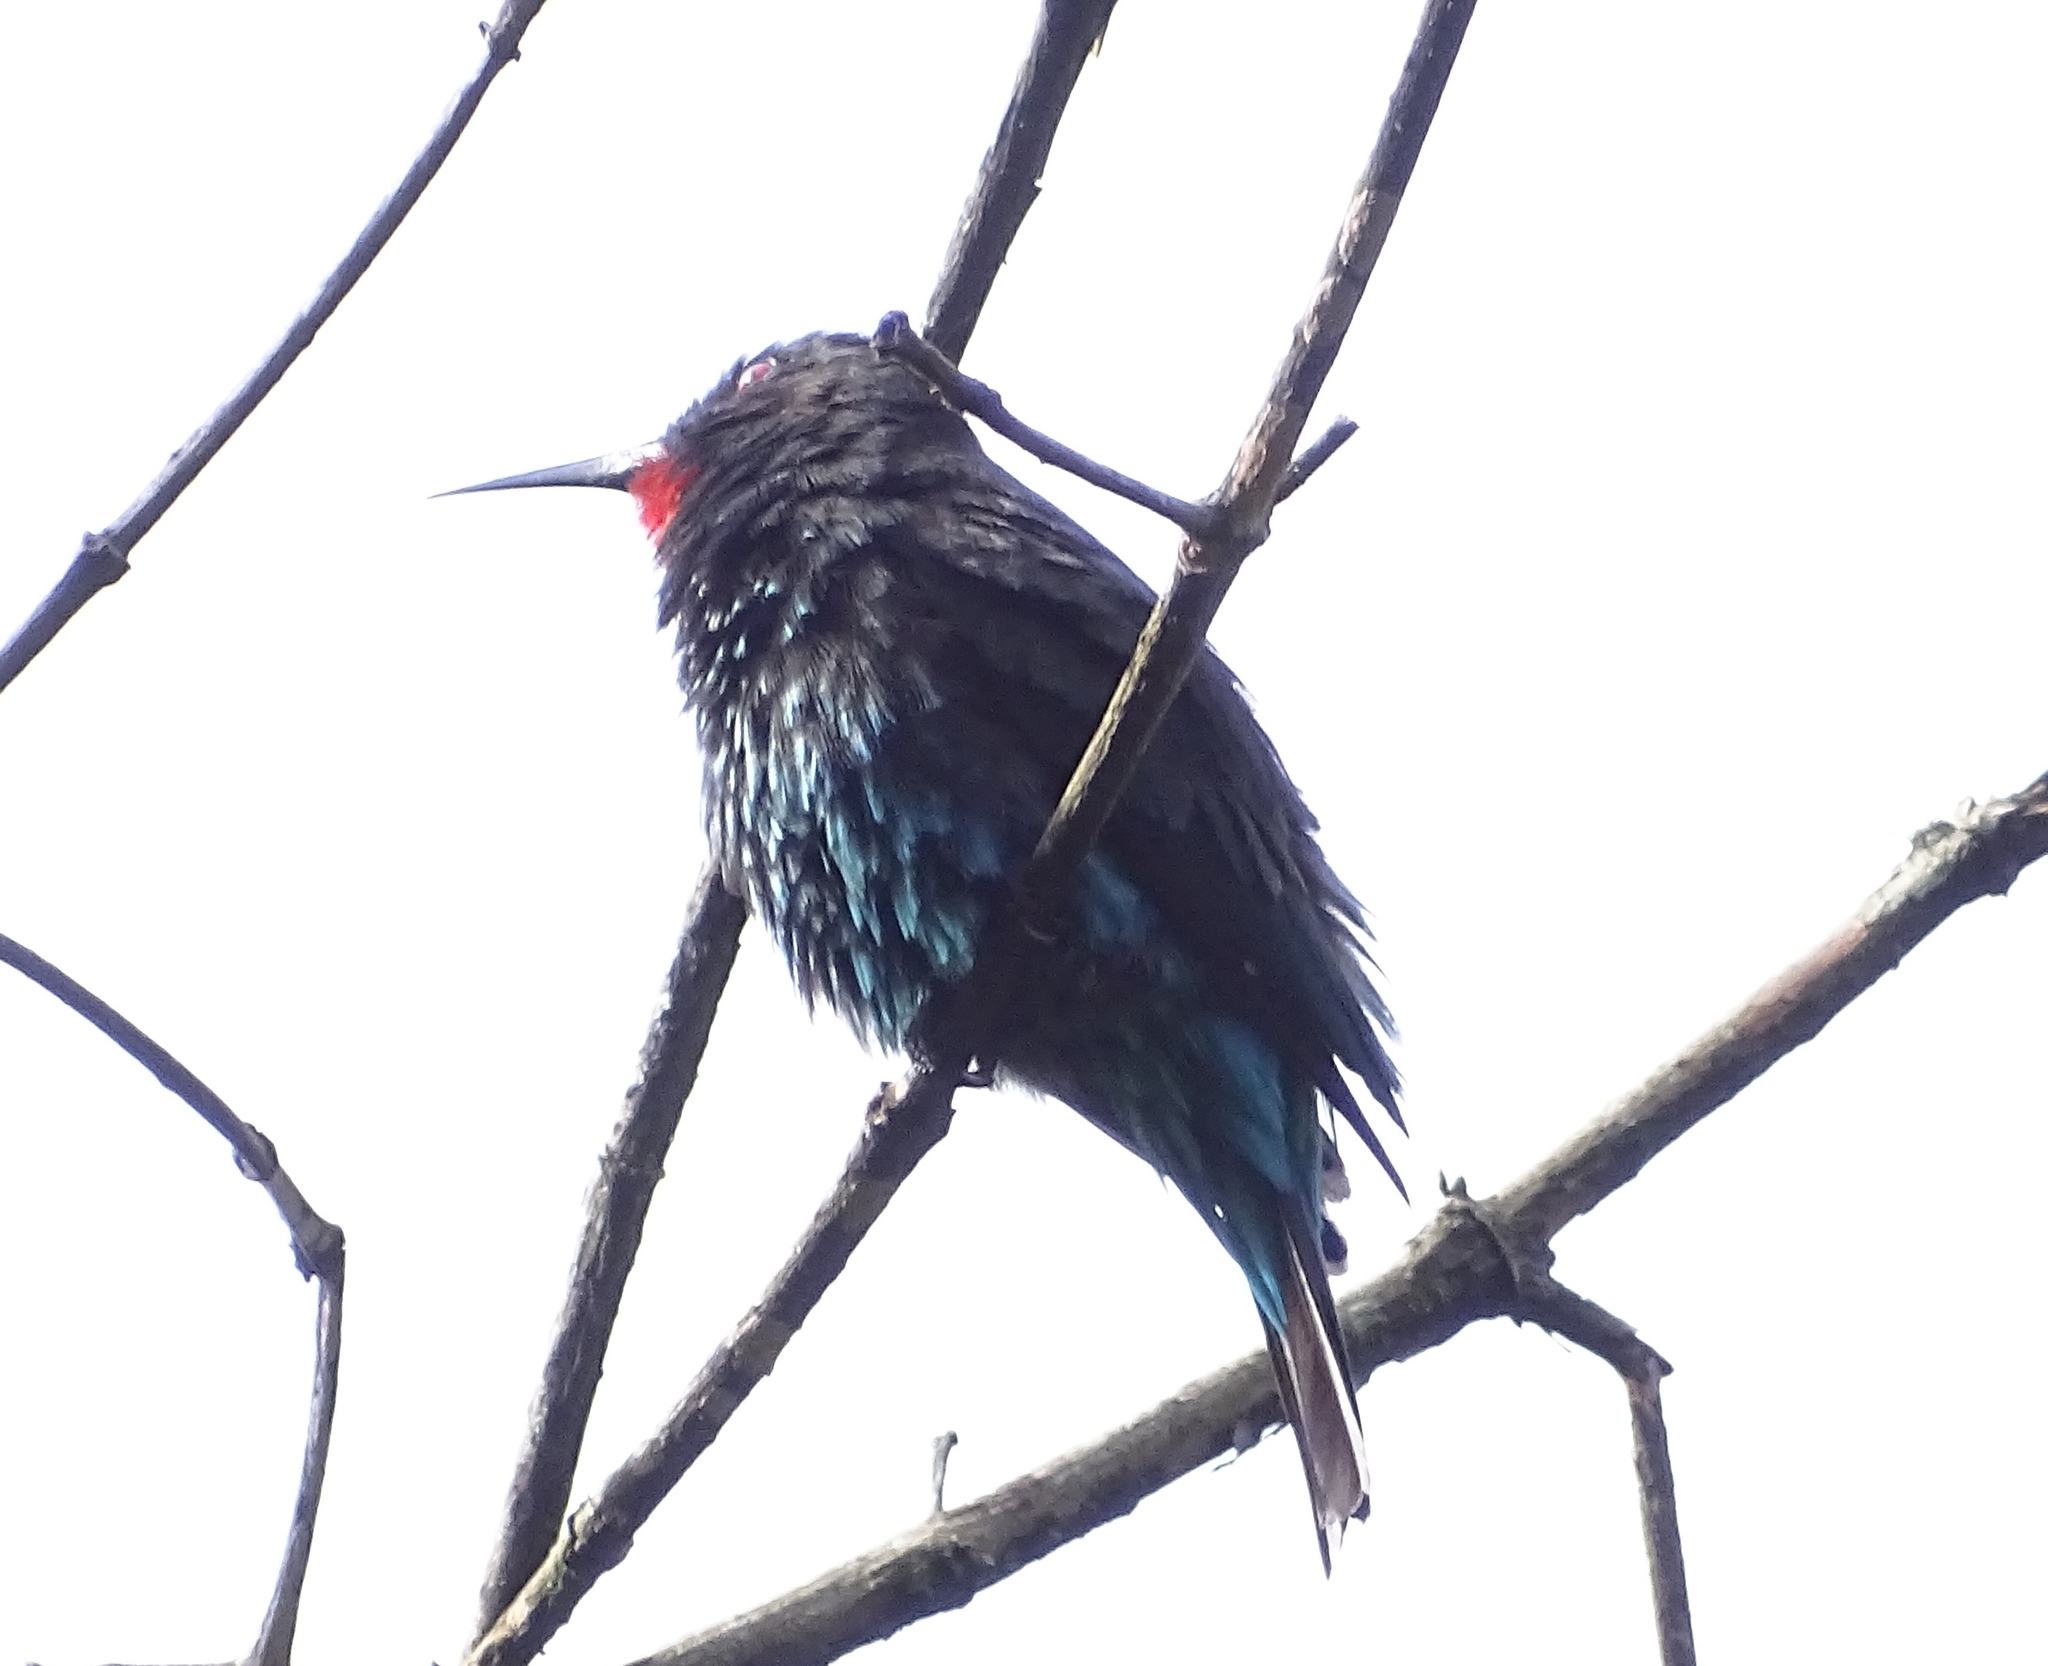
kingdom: Animalia
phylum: Chordata
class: Aves
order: Coraciiformes
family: Meropidae
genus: Merops
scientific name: Merops gularis
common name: Black bee-eater
